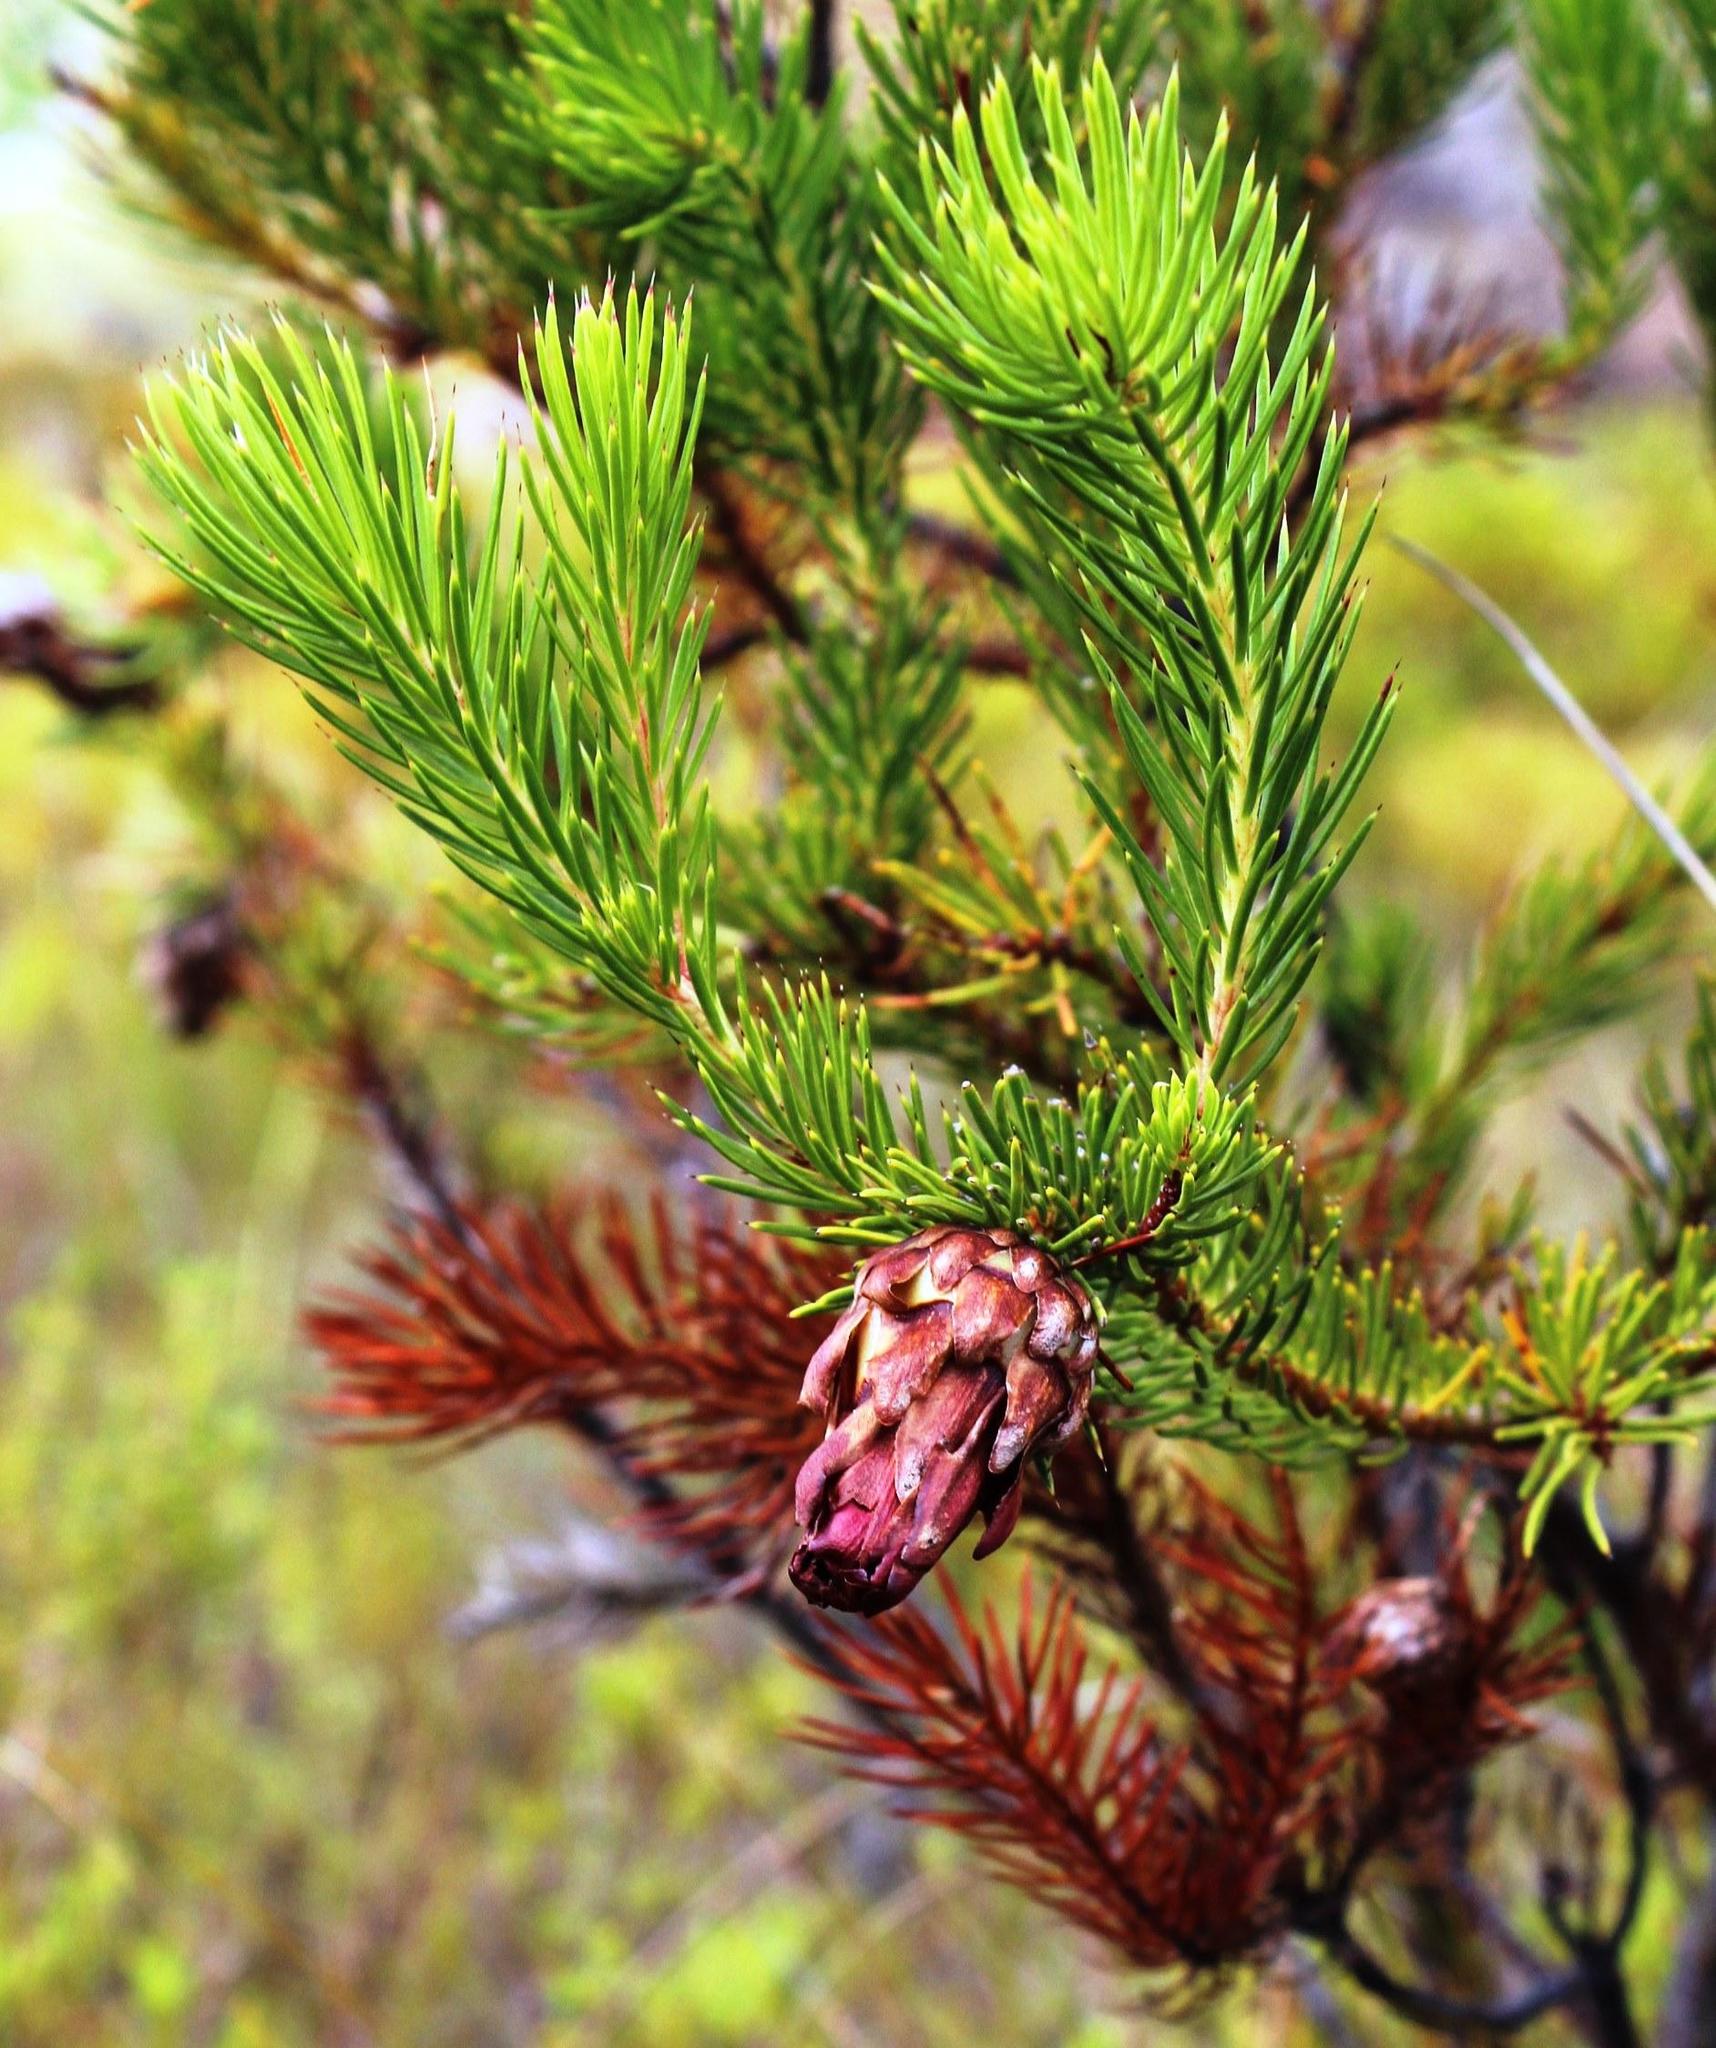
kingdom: Plantae
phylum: Tracheophyta
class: Magnoliopsida
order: Proteales
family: Proteaceae
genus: Protea
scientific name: Protea nana
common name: Mountain rose
